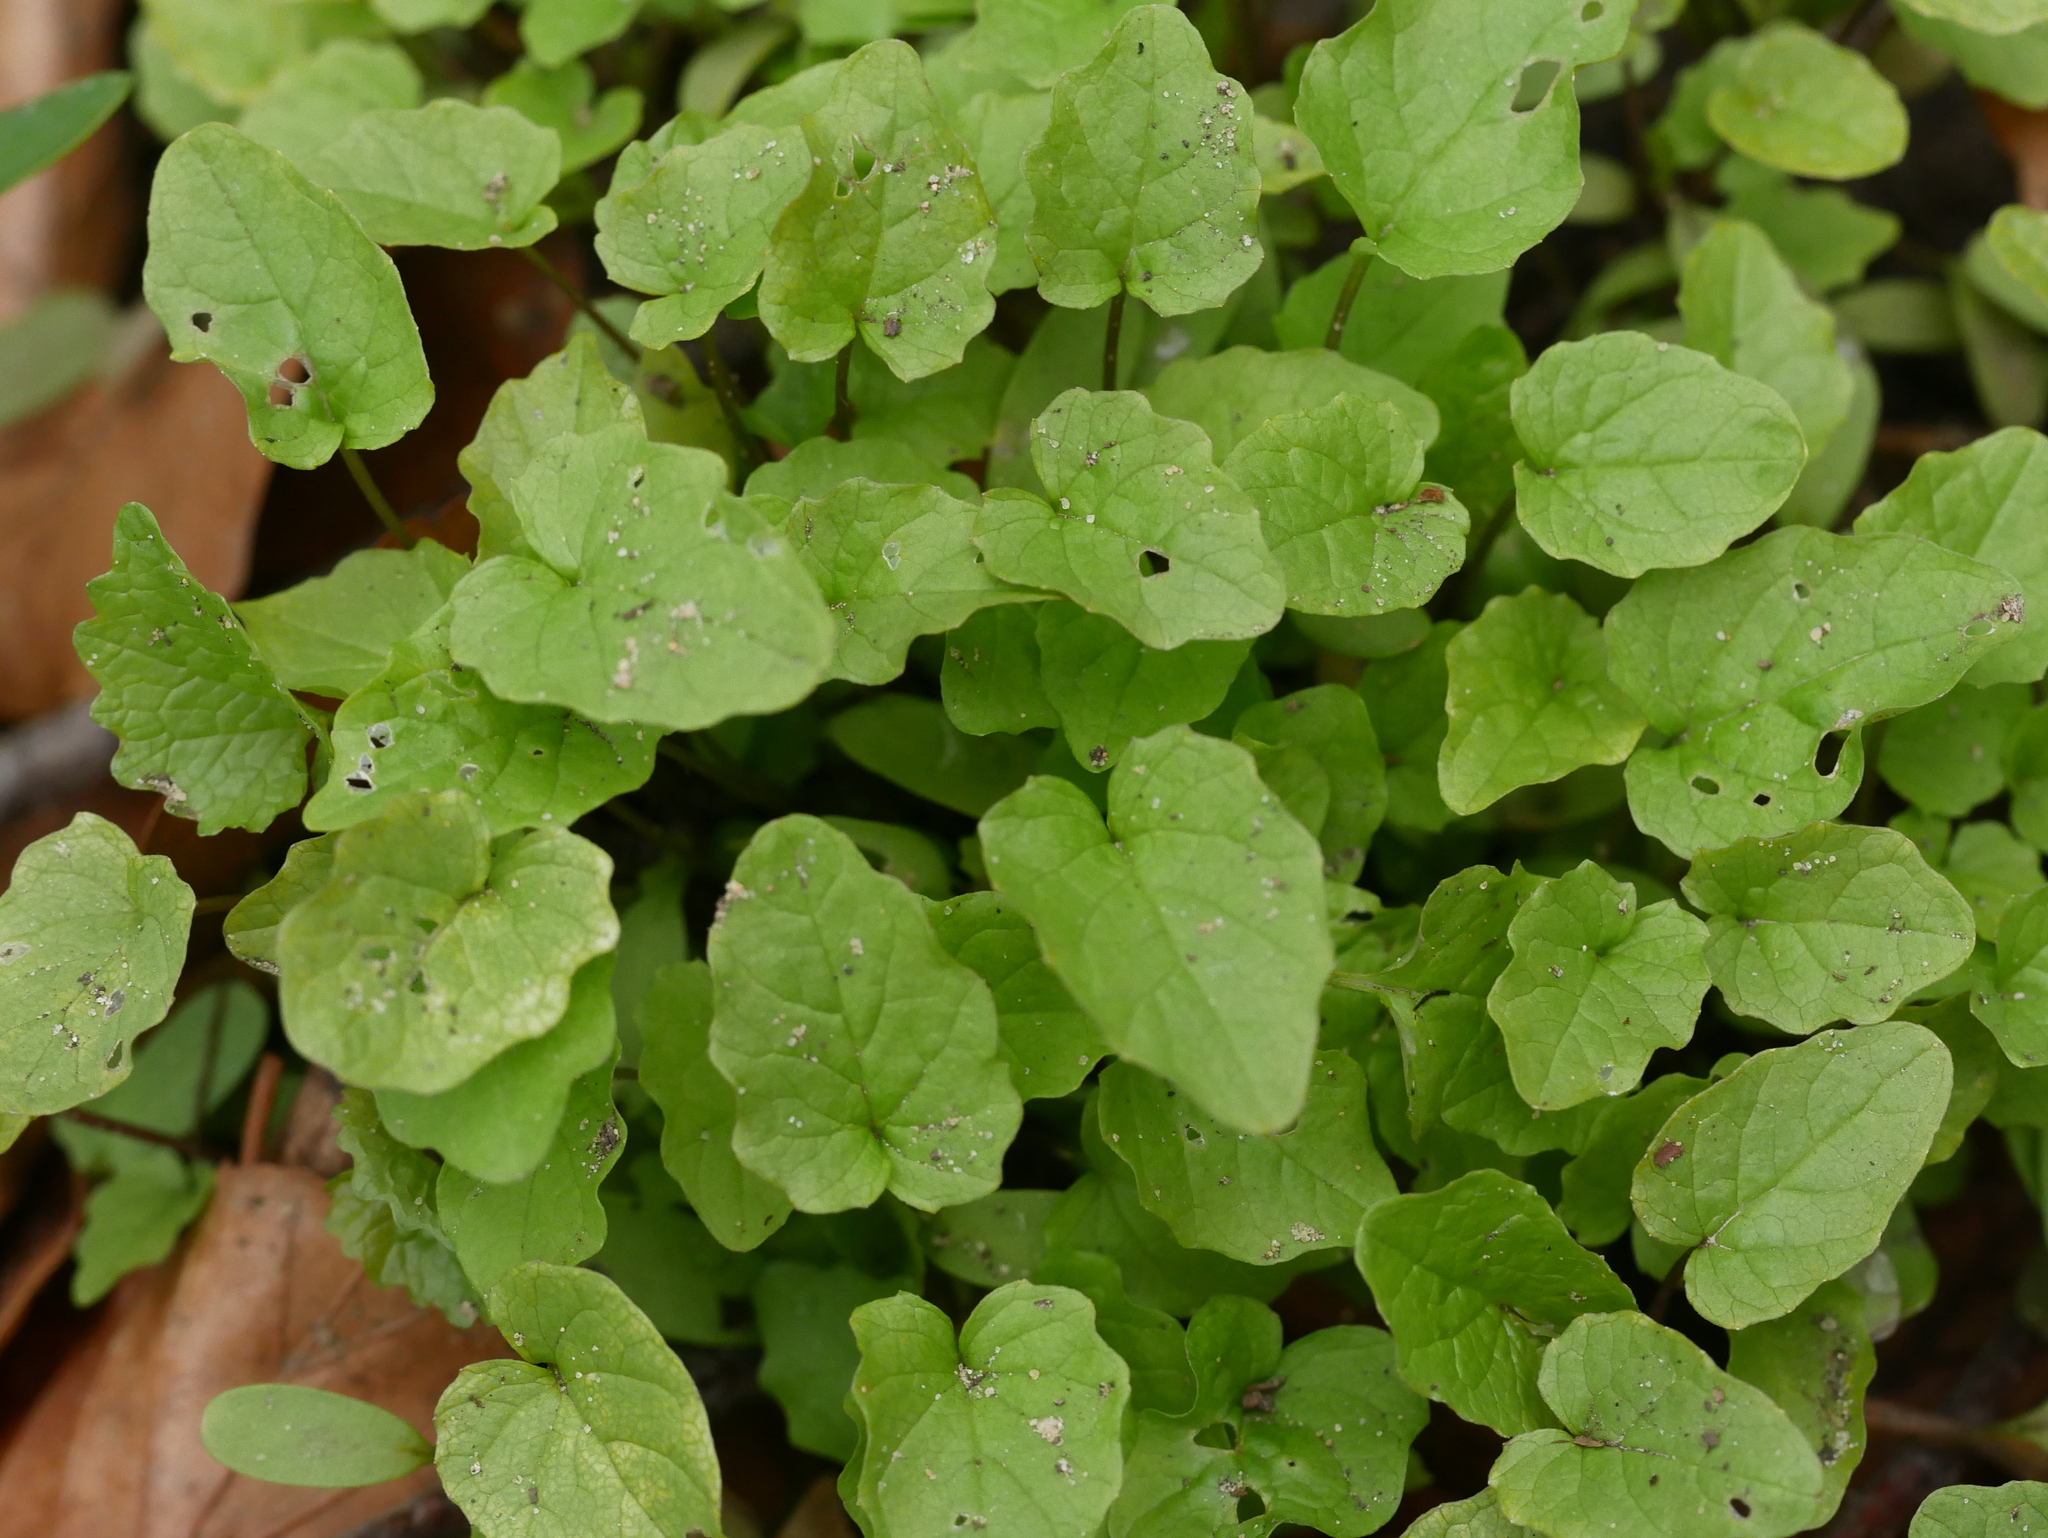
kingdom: Plantae
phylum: Tracheophyta
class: Magnoliopsida
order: Ranunculales
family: Ranunculaceae
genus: Ficaria
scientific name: Ficaria verna
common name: Lesser celandine
